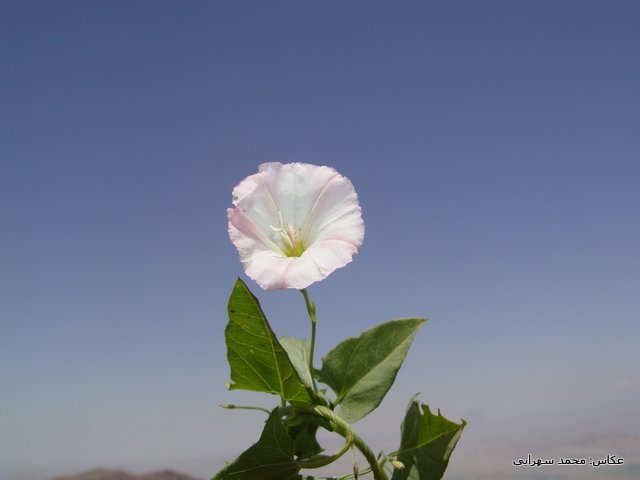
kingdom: Plantae
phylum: Tracheophyta
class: Magnoliopsida
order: Solanales
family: Convolvulaceae
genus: Convolvulus
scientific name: Convolvulus arvensis
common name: Field bindweed
